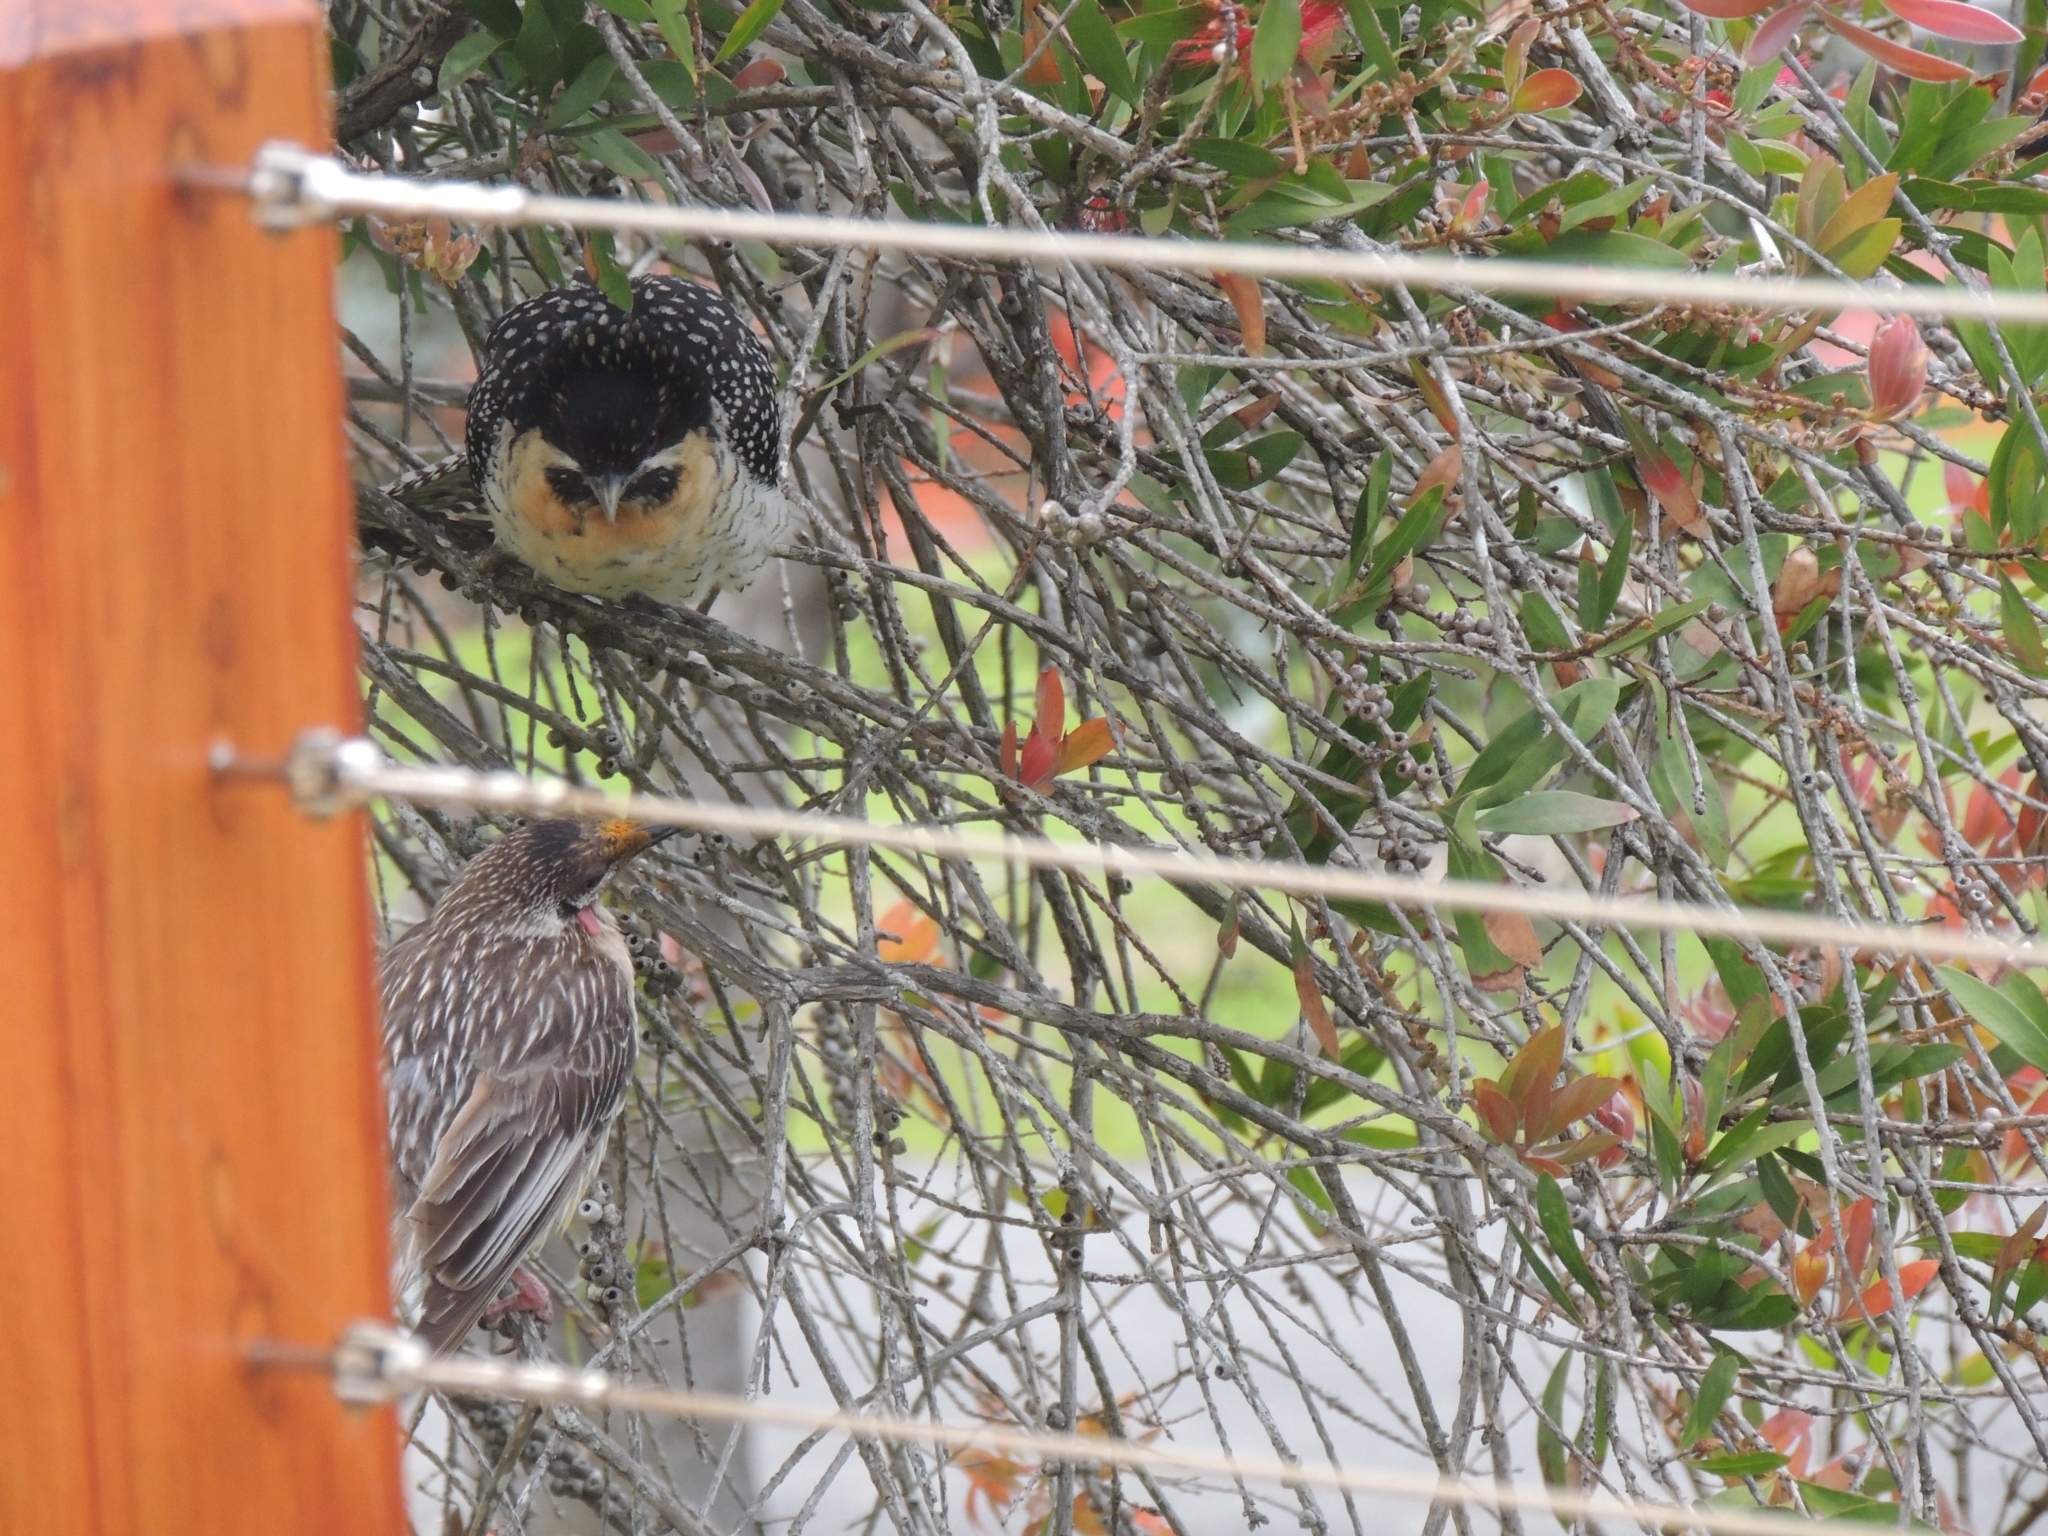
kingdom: Animalia
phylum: Chordata
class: Aves
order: Cuculiformes
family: Cuculidae
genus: Eudynamys
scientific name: Eudynamys orientalis
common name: Pacific koel
